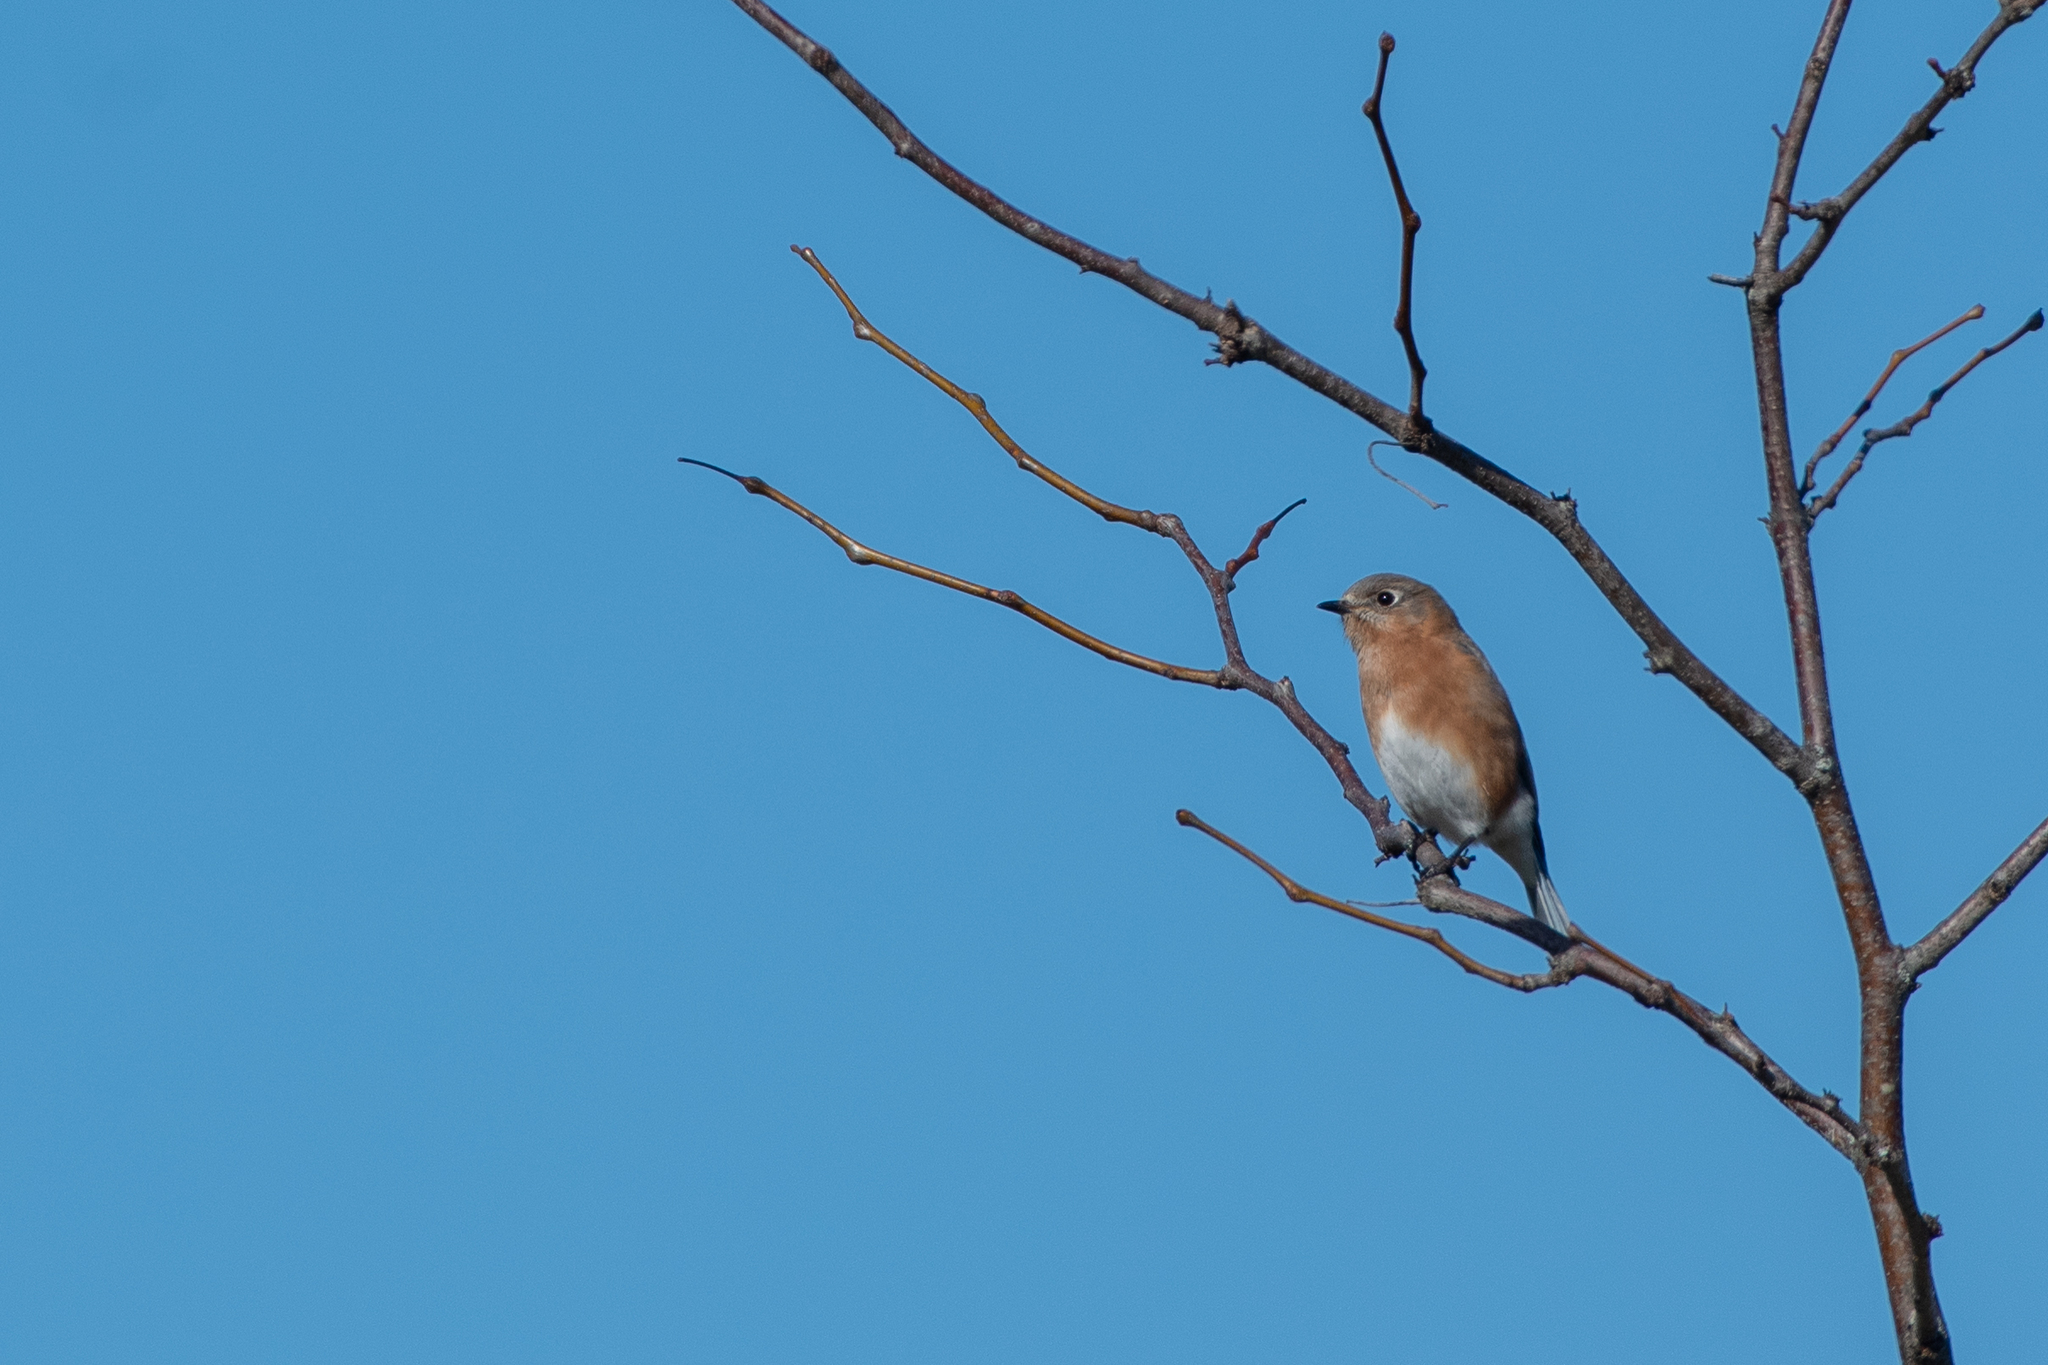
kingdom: Animalia
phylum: Chordata
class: Aves
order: Passeriformes
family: Turdidae
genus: Sialia
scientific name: Sialia sialis
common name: Eastern bluebird
